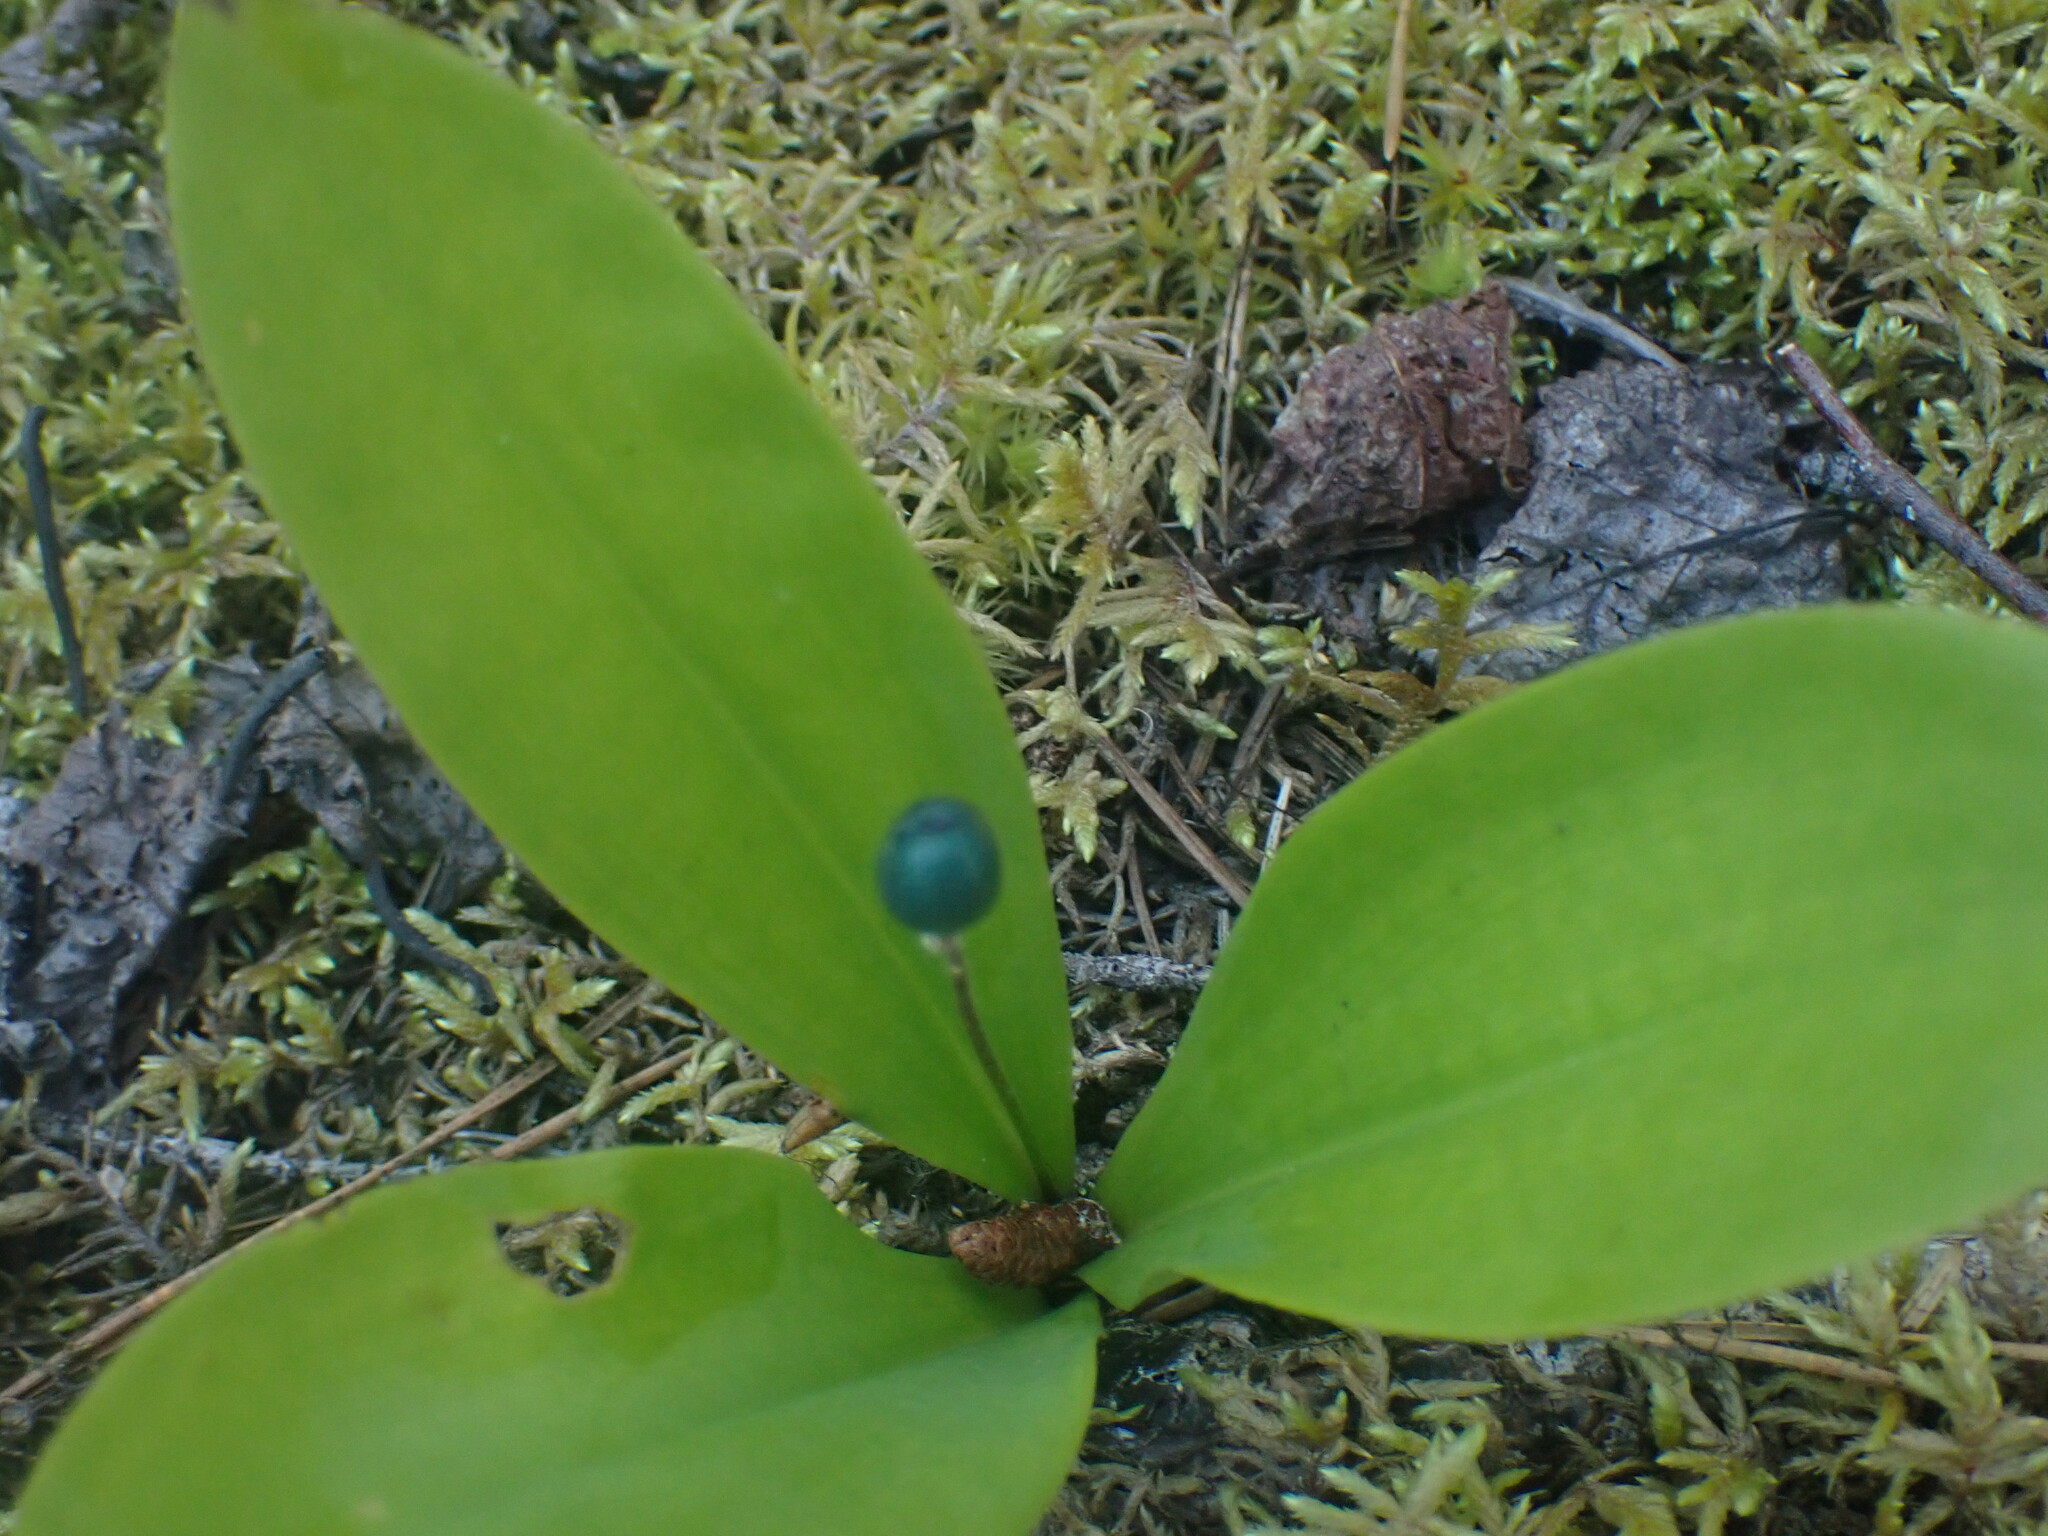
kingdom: Plantae
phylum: Tracheophyta
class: Liliopsida
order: Liliales
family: Liliaceae
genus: Clintonia
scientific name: Clintonia uniflora
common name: Queen's cup
